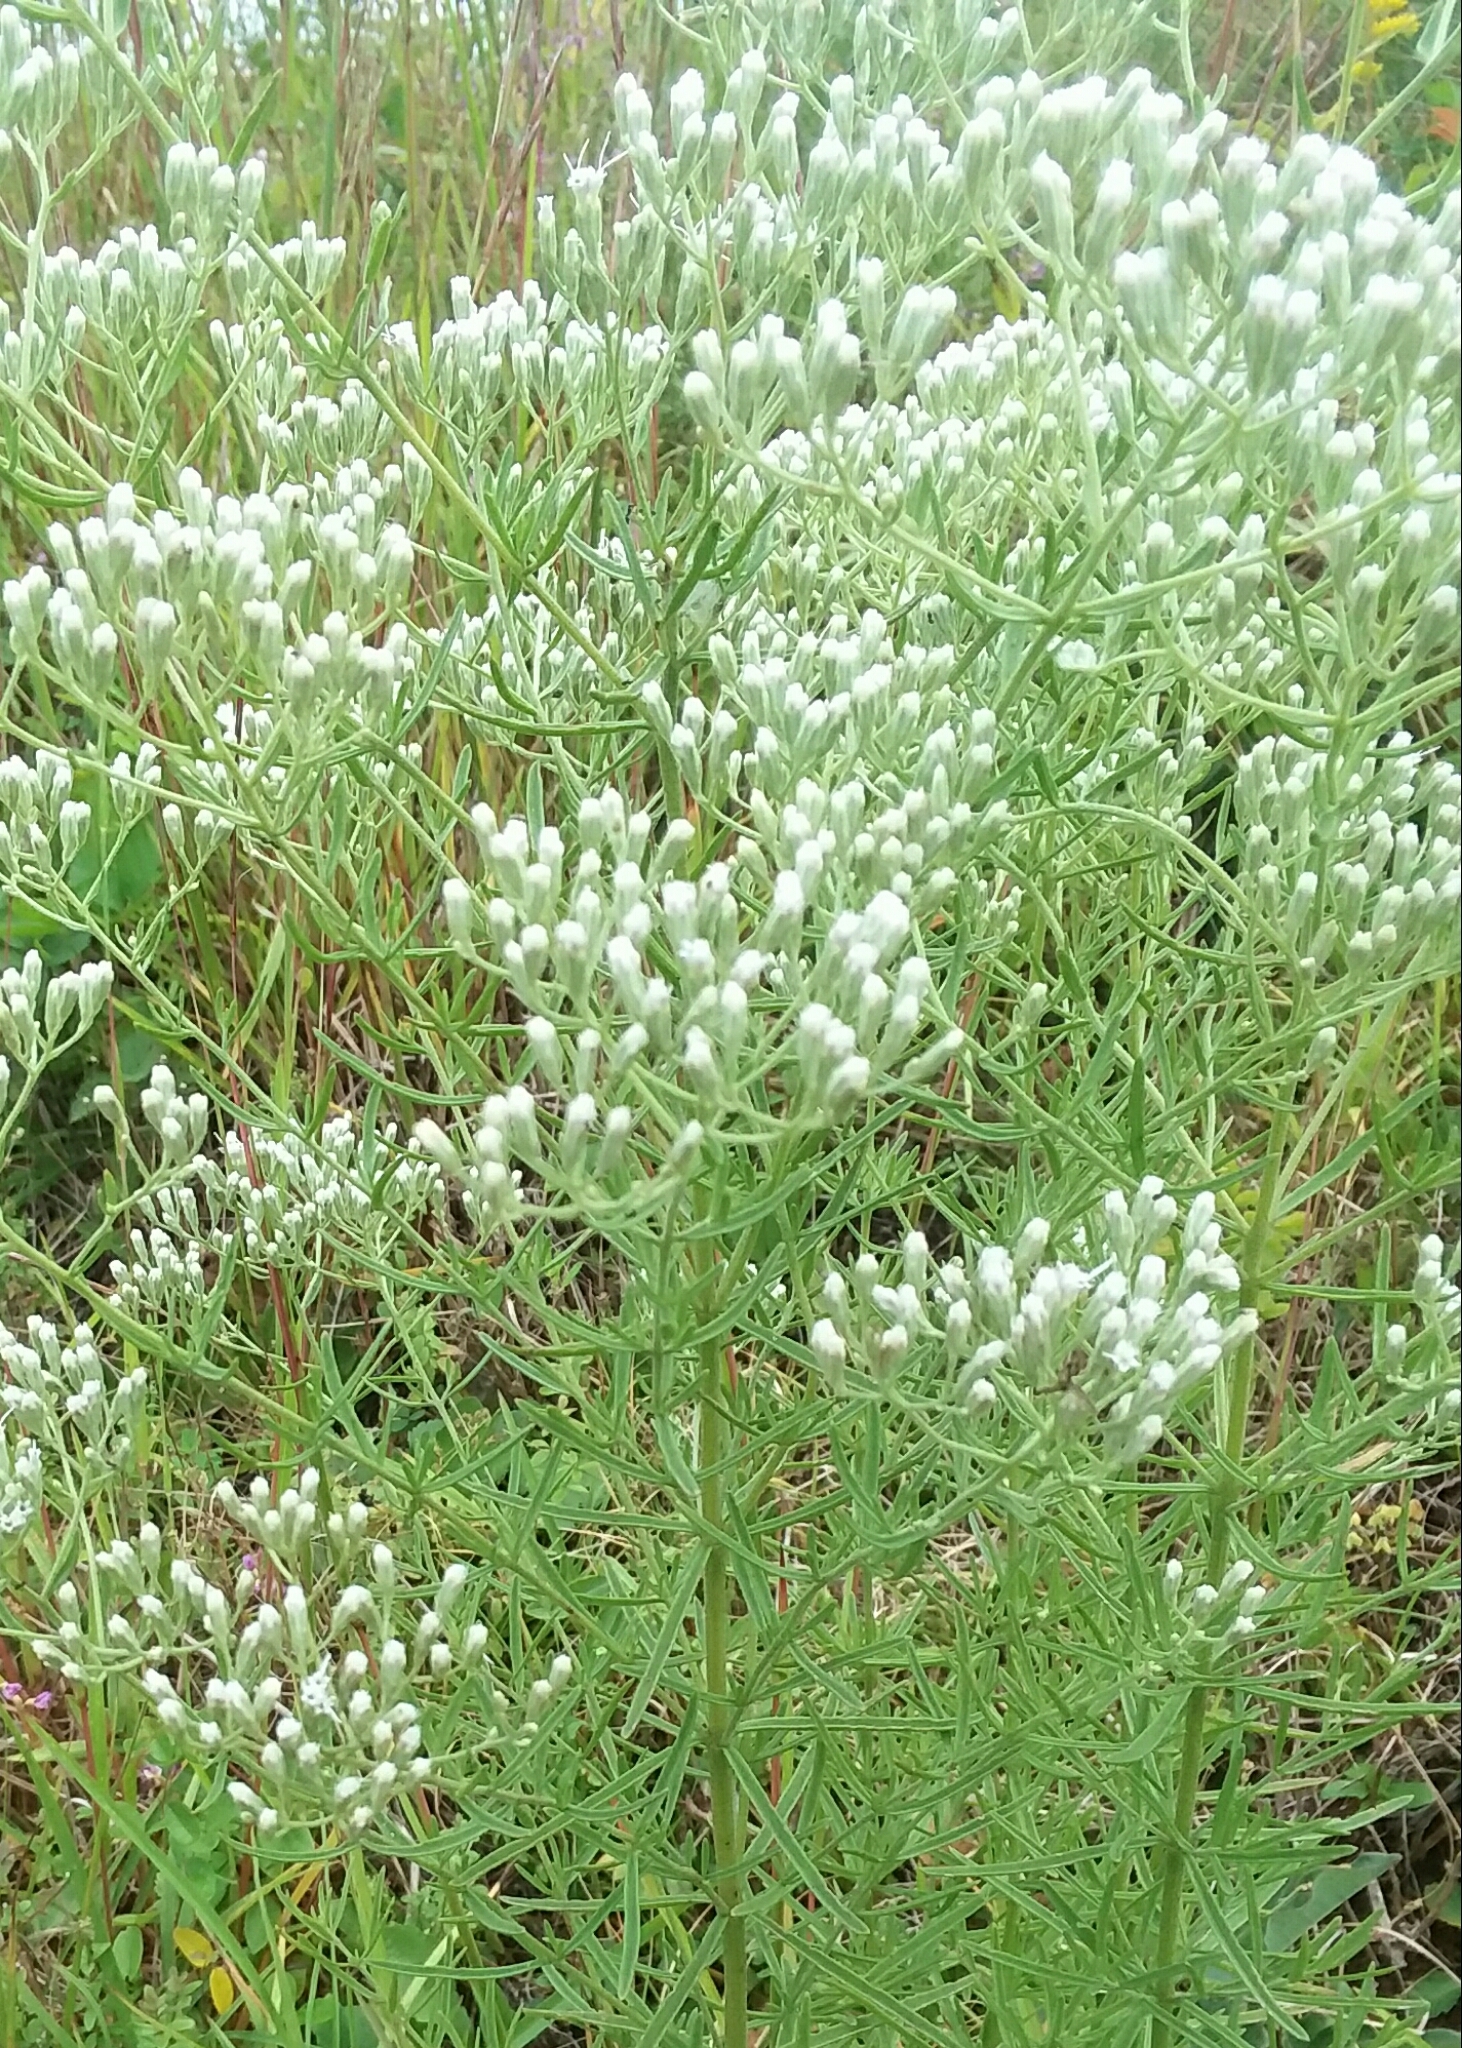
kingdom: Plantae
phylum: Tracheophyta
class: Magnoliopsida
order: Asterales
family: Asteraceae
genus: Eupatorium
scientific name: Eupatorium hyssopifolium
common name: Hyssop-leaf thoroughwort
